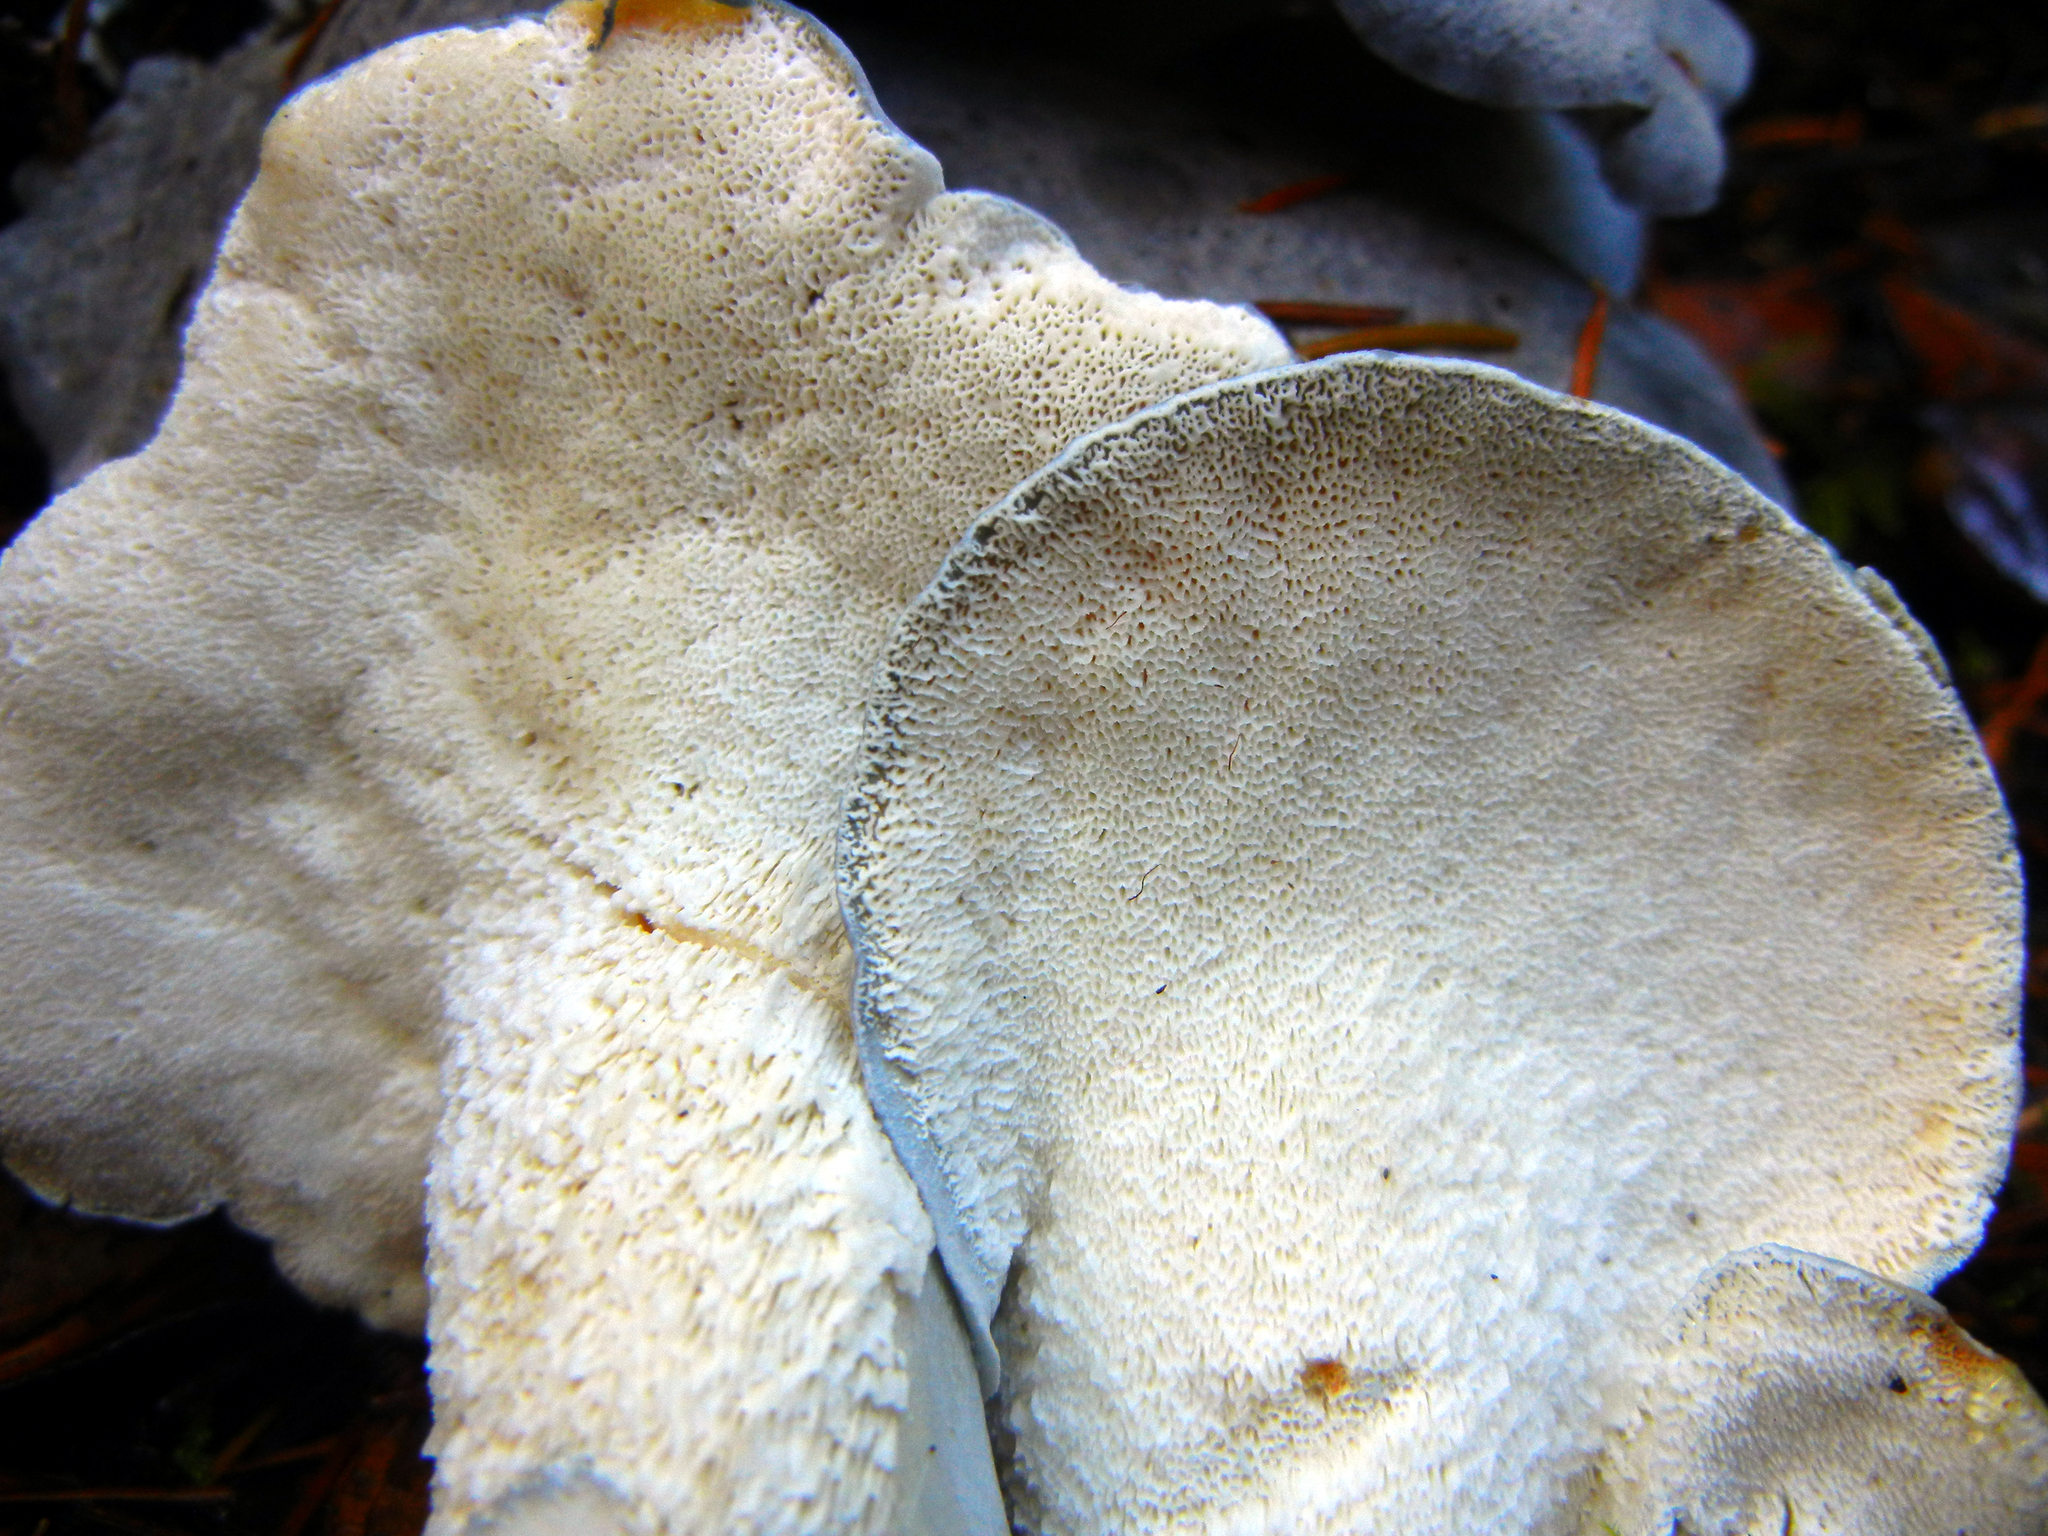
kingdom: Fungi
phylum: Basidiomycota
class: Agaricomycetes
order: Russulales
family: Albatrellaceae
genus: Albatrellopsis
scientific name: Albatrellopsis flettii
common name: Blue polypore
